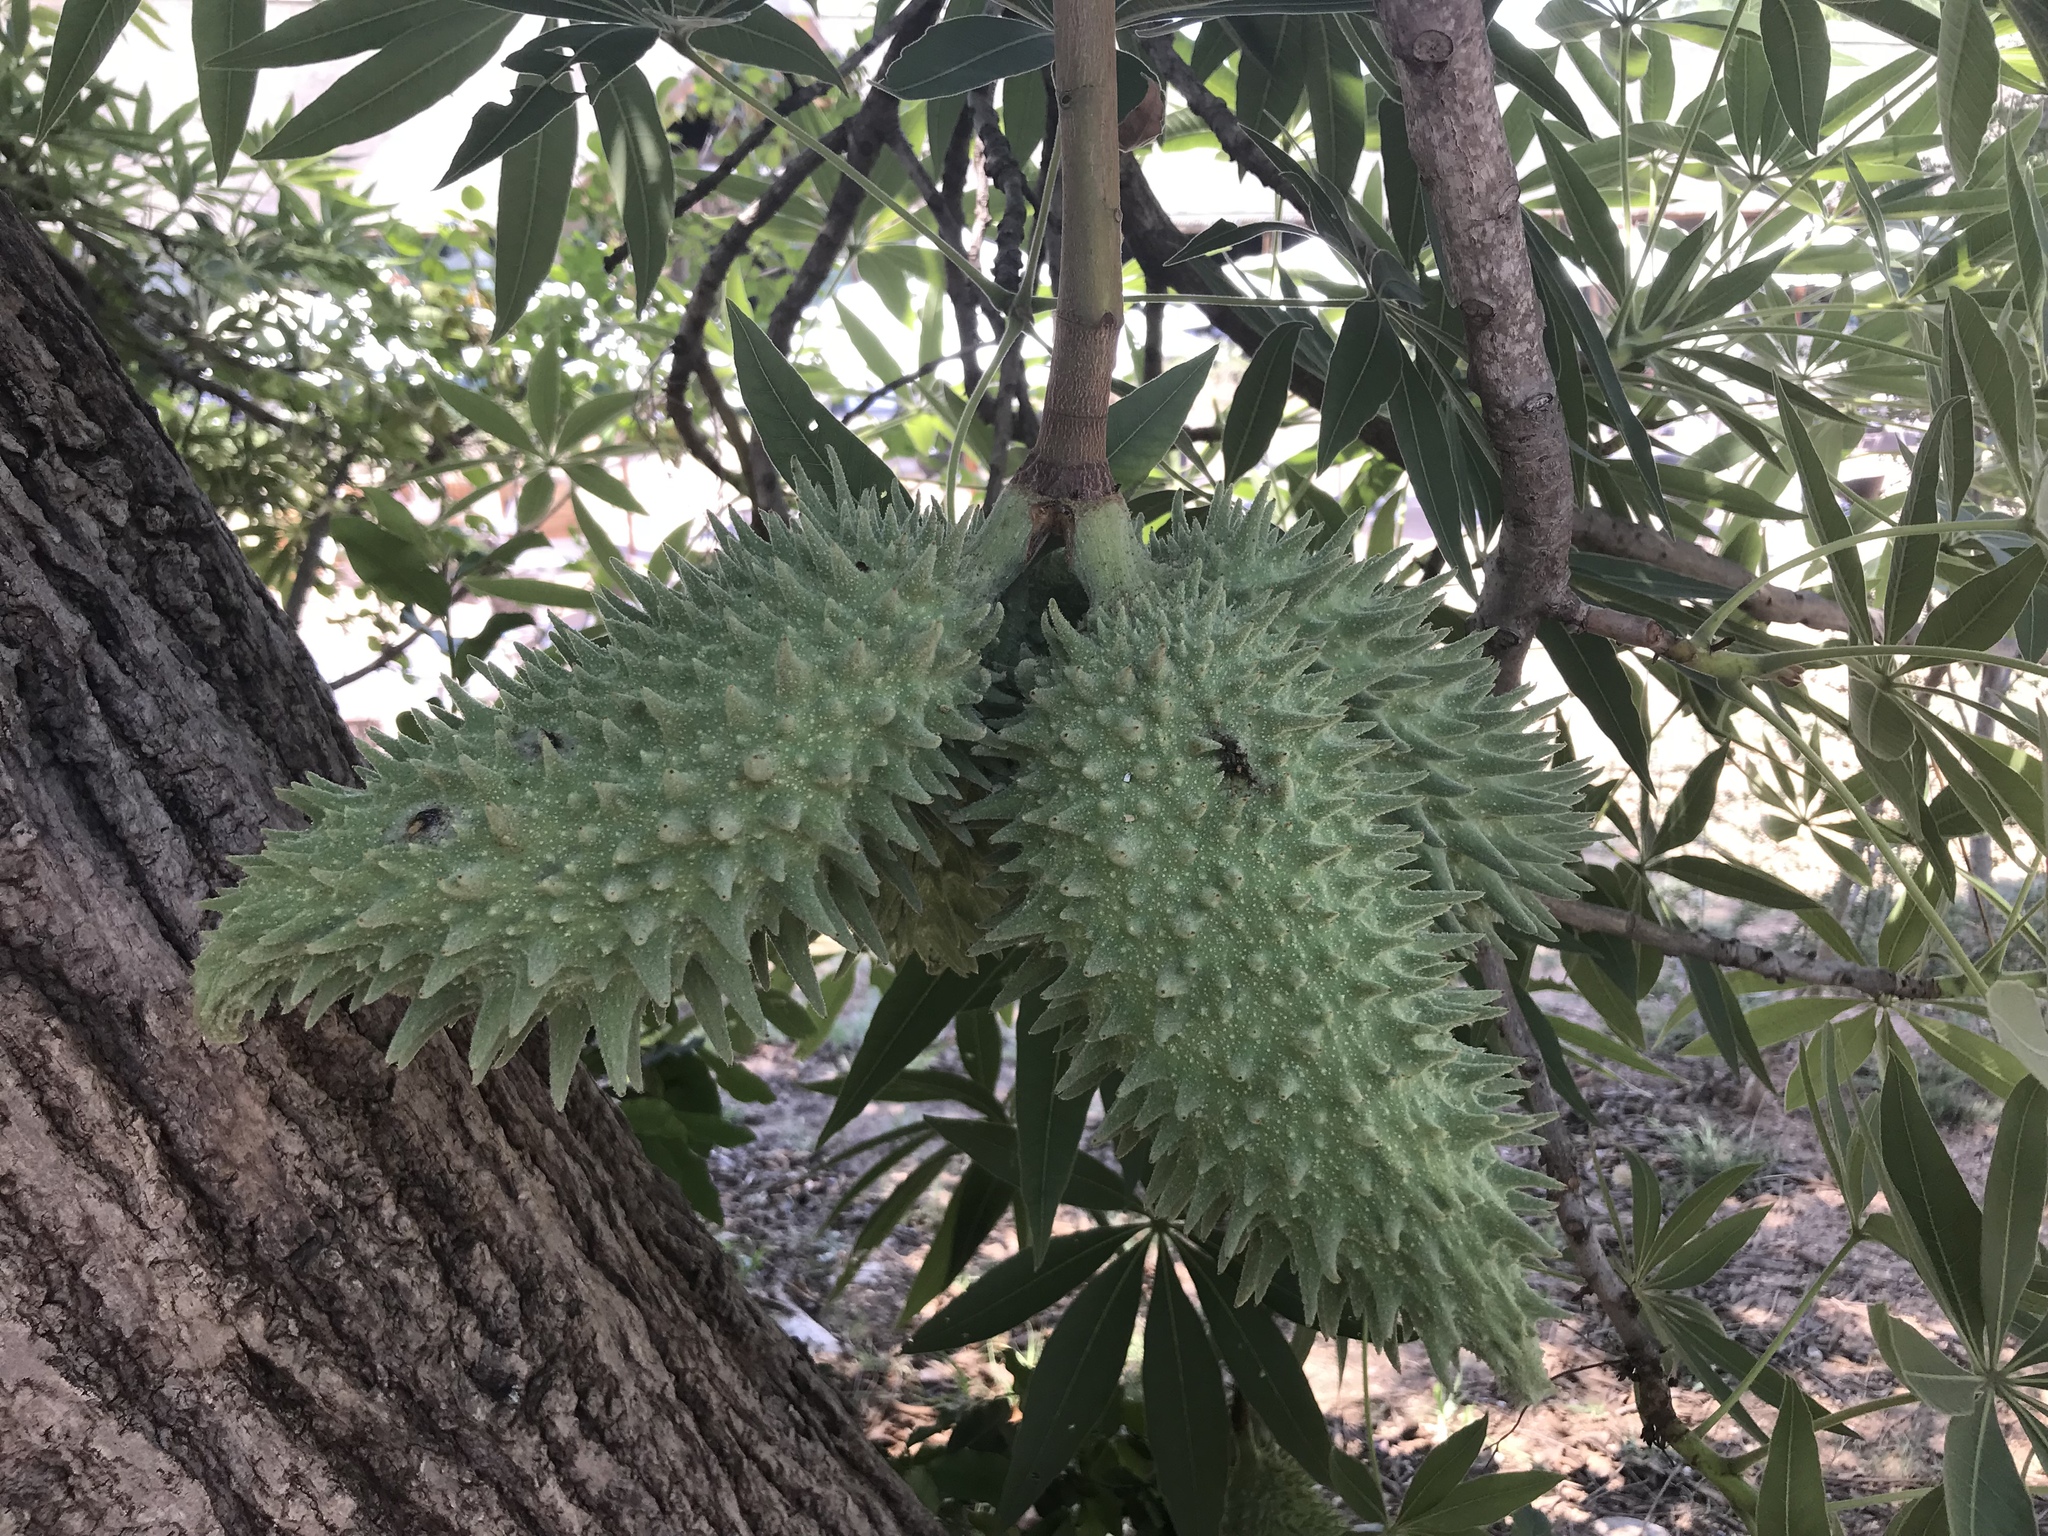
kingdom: Plantae
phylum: Tracheophyta
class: Magnoliopsida
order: Malvales
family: Malvaceae
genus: Sterculia
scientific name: Sterculia murex
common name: Lowveld star-chestnut
